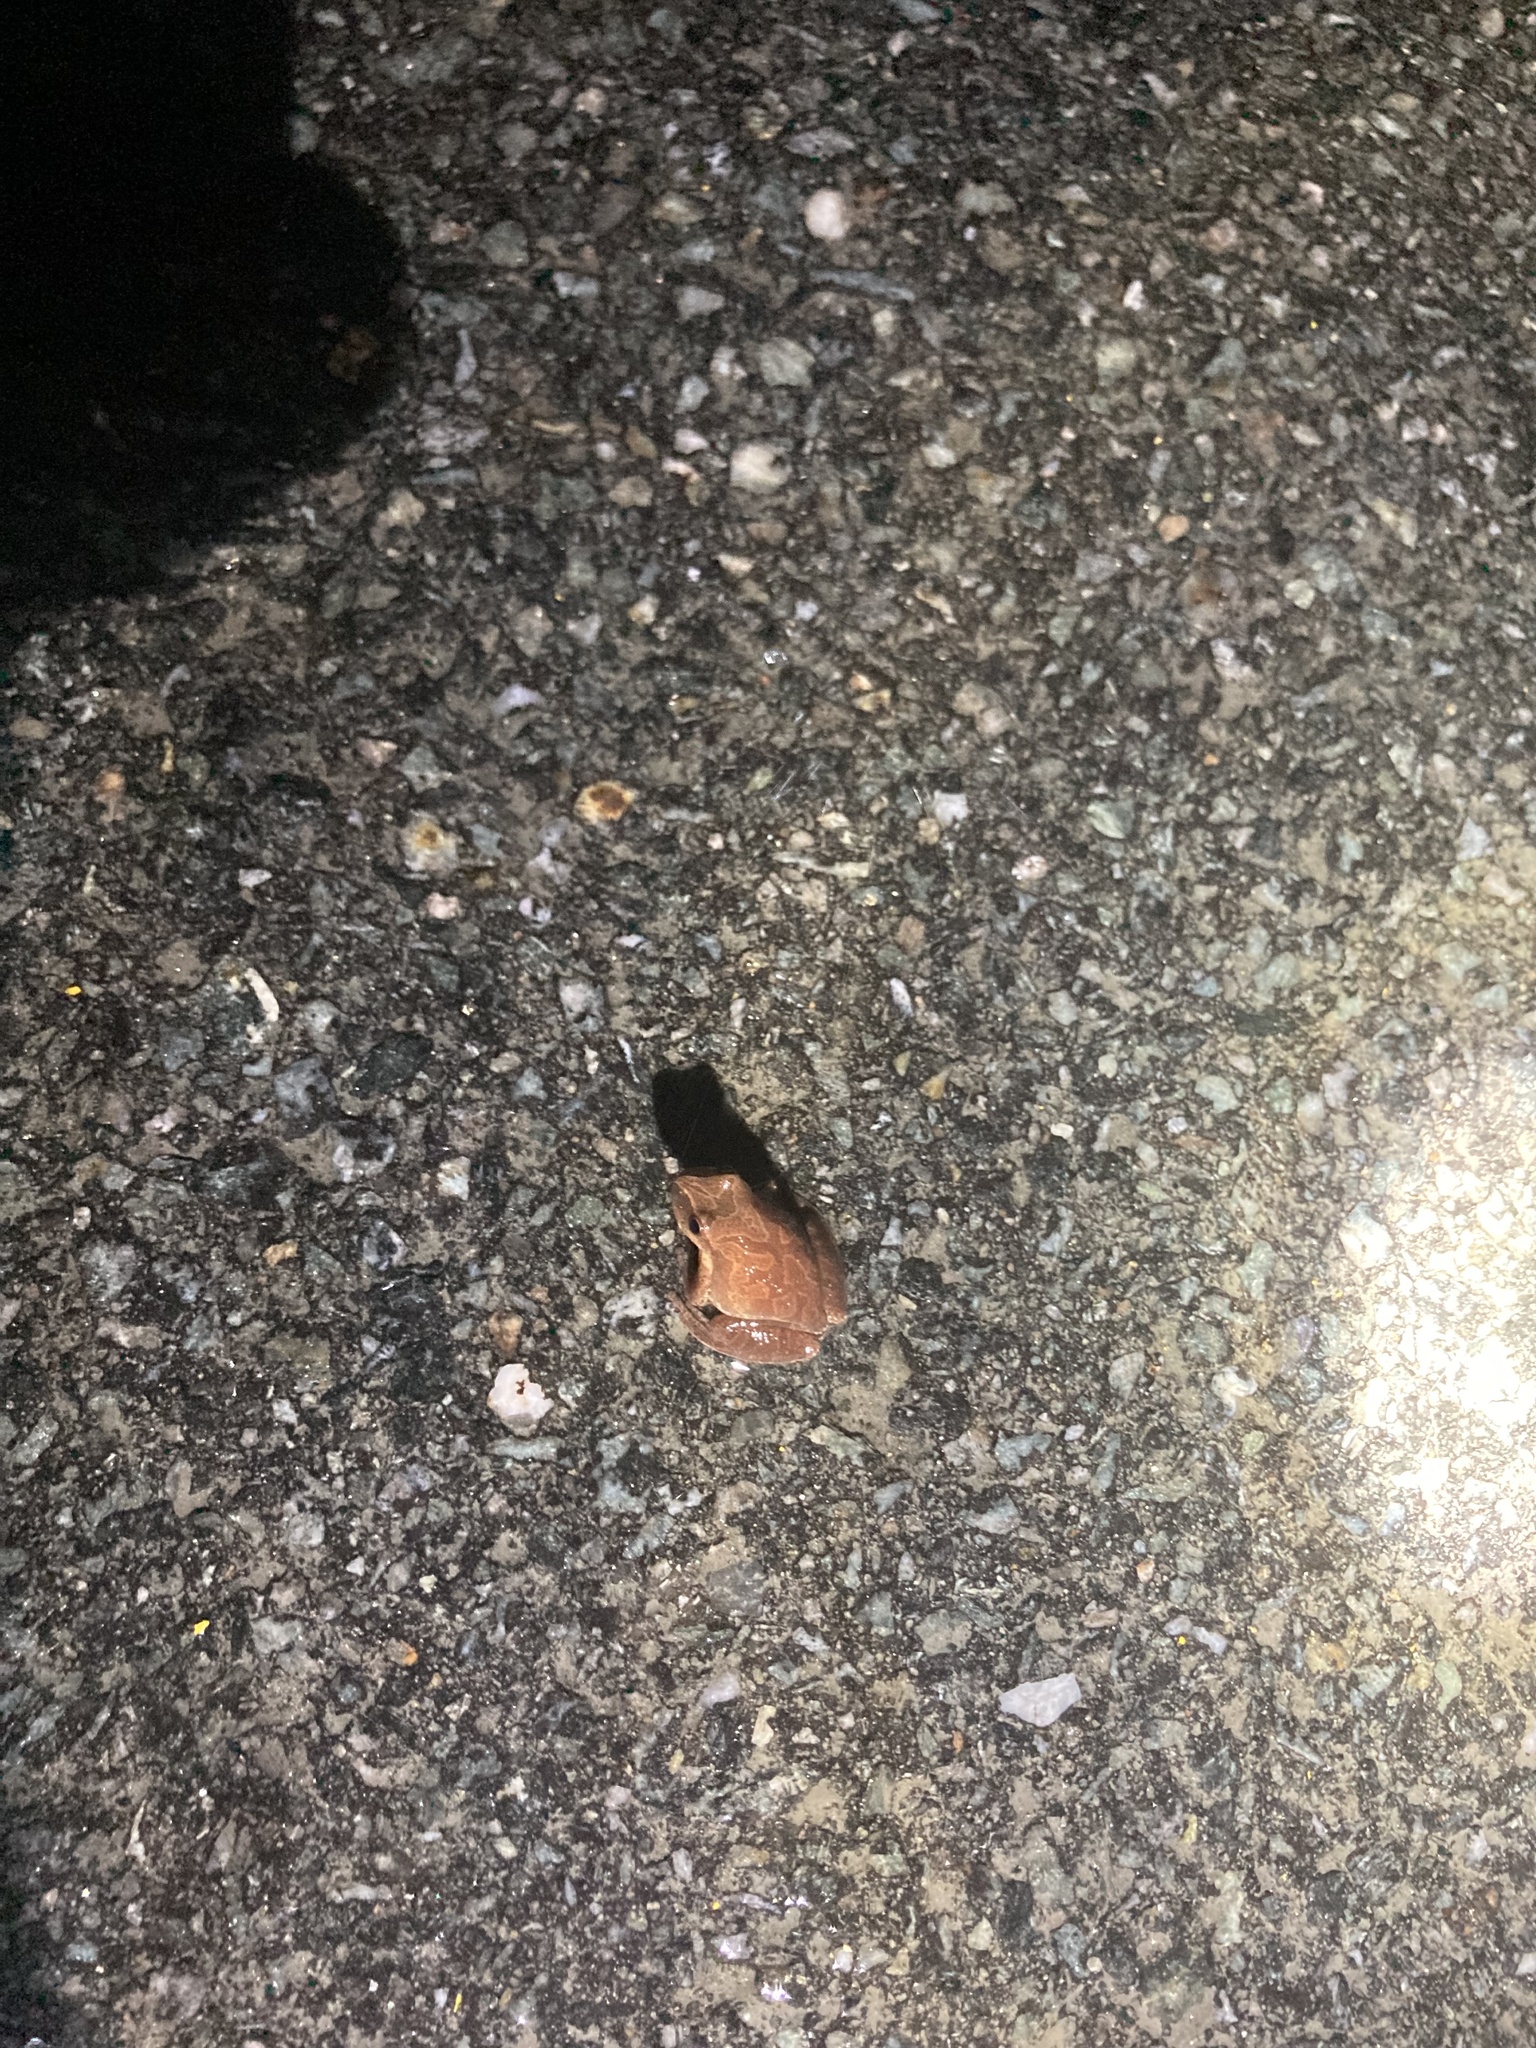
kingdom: Animalia
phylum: Chordata
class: Amphibia
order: Anura
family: Hylidae
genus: Pseudacris
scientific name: Pseudacris crucifer
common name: Spring peeper
